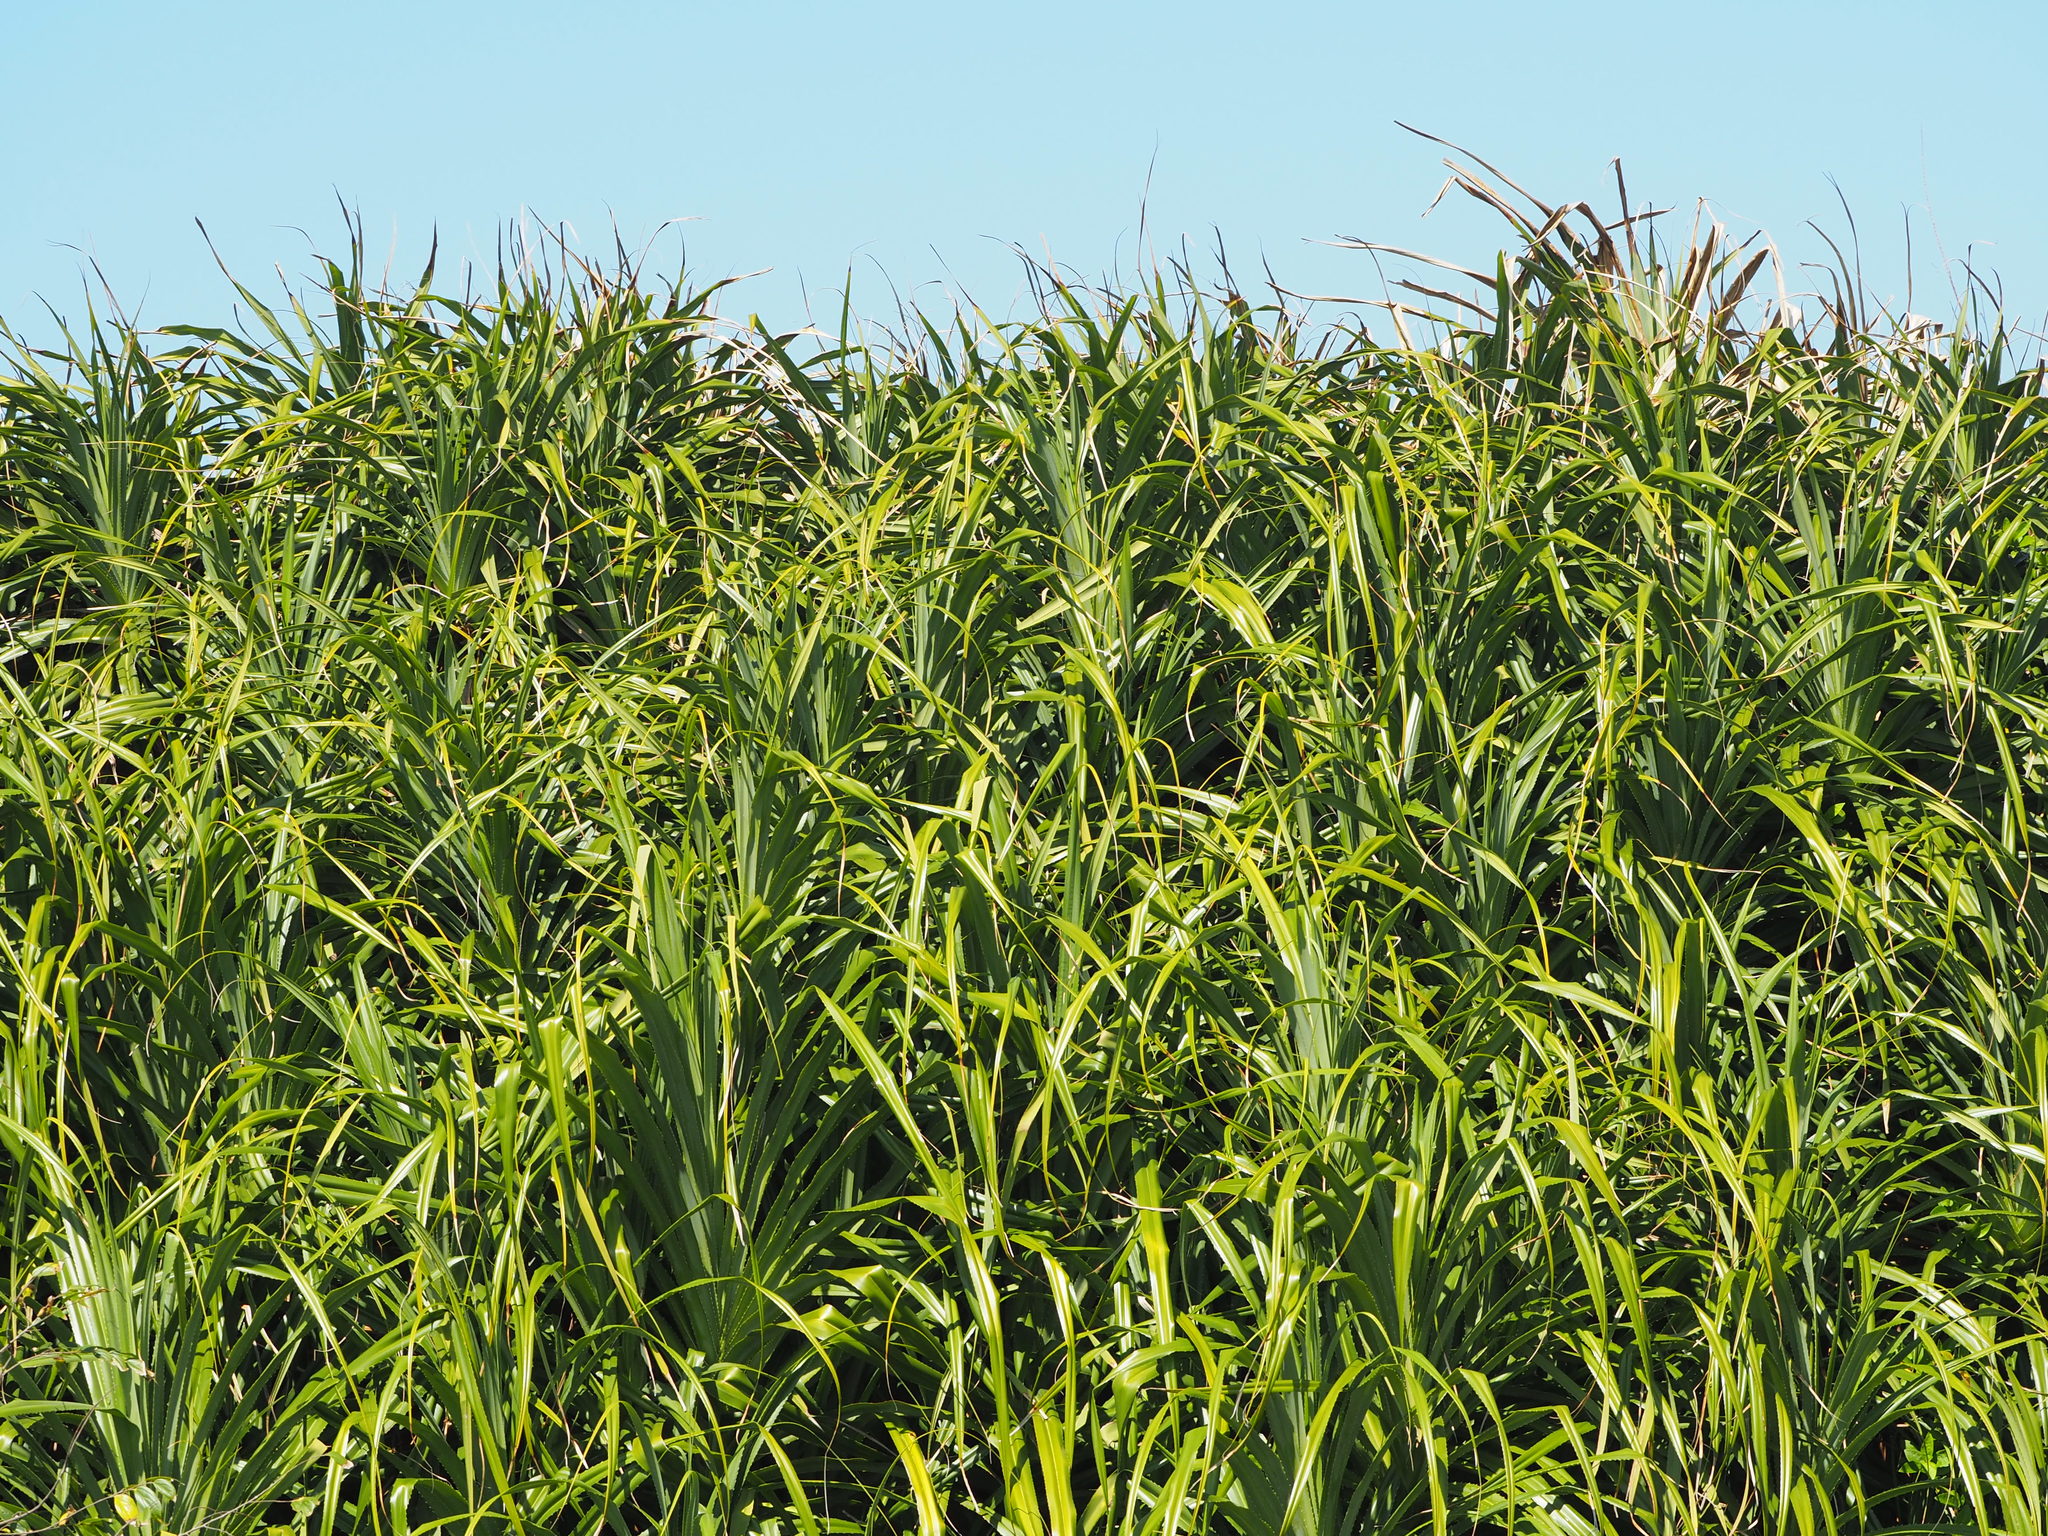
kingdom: Plantae
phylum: Tracheophyta
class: Liliopsida
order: Pandanales
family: Pandanaceae
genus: Pandanus
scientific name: Pandanus odorifer
